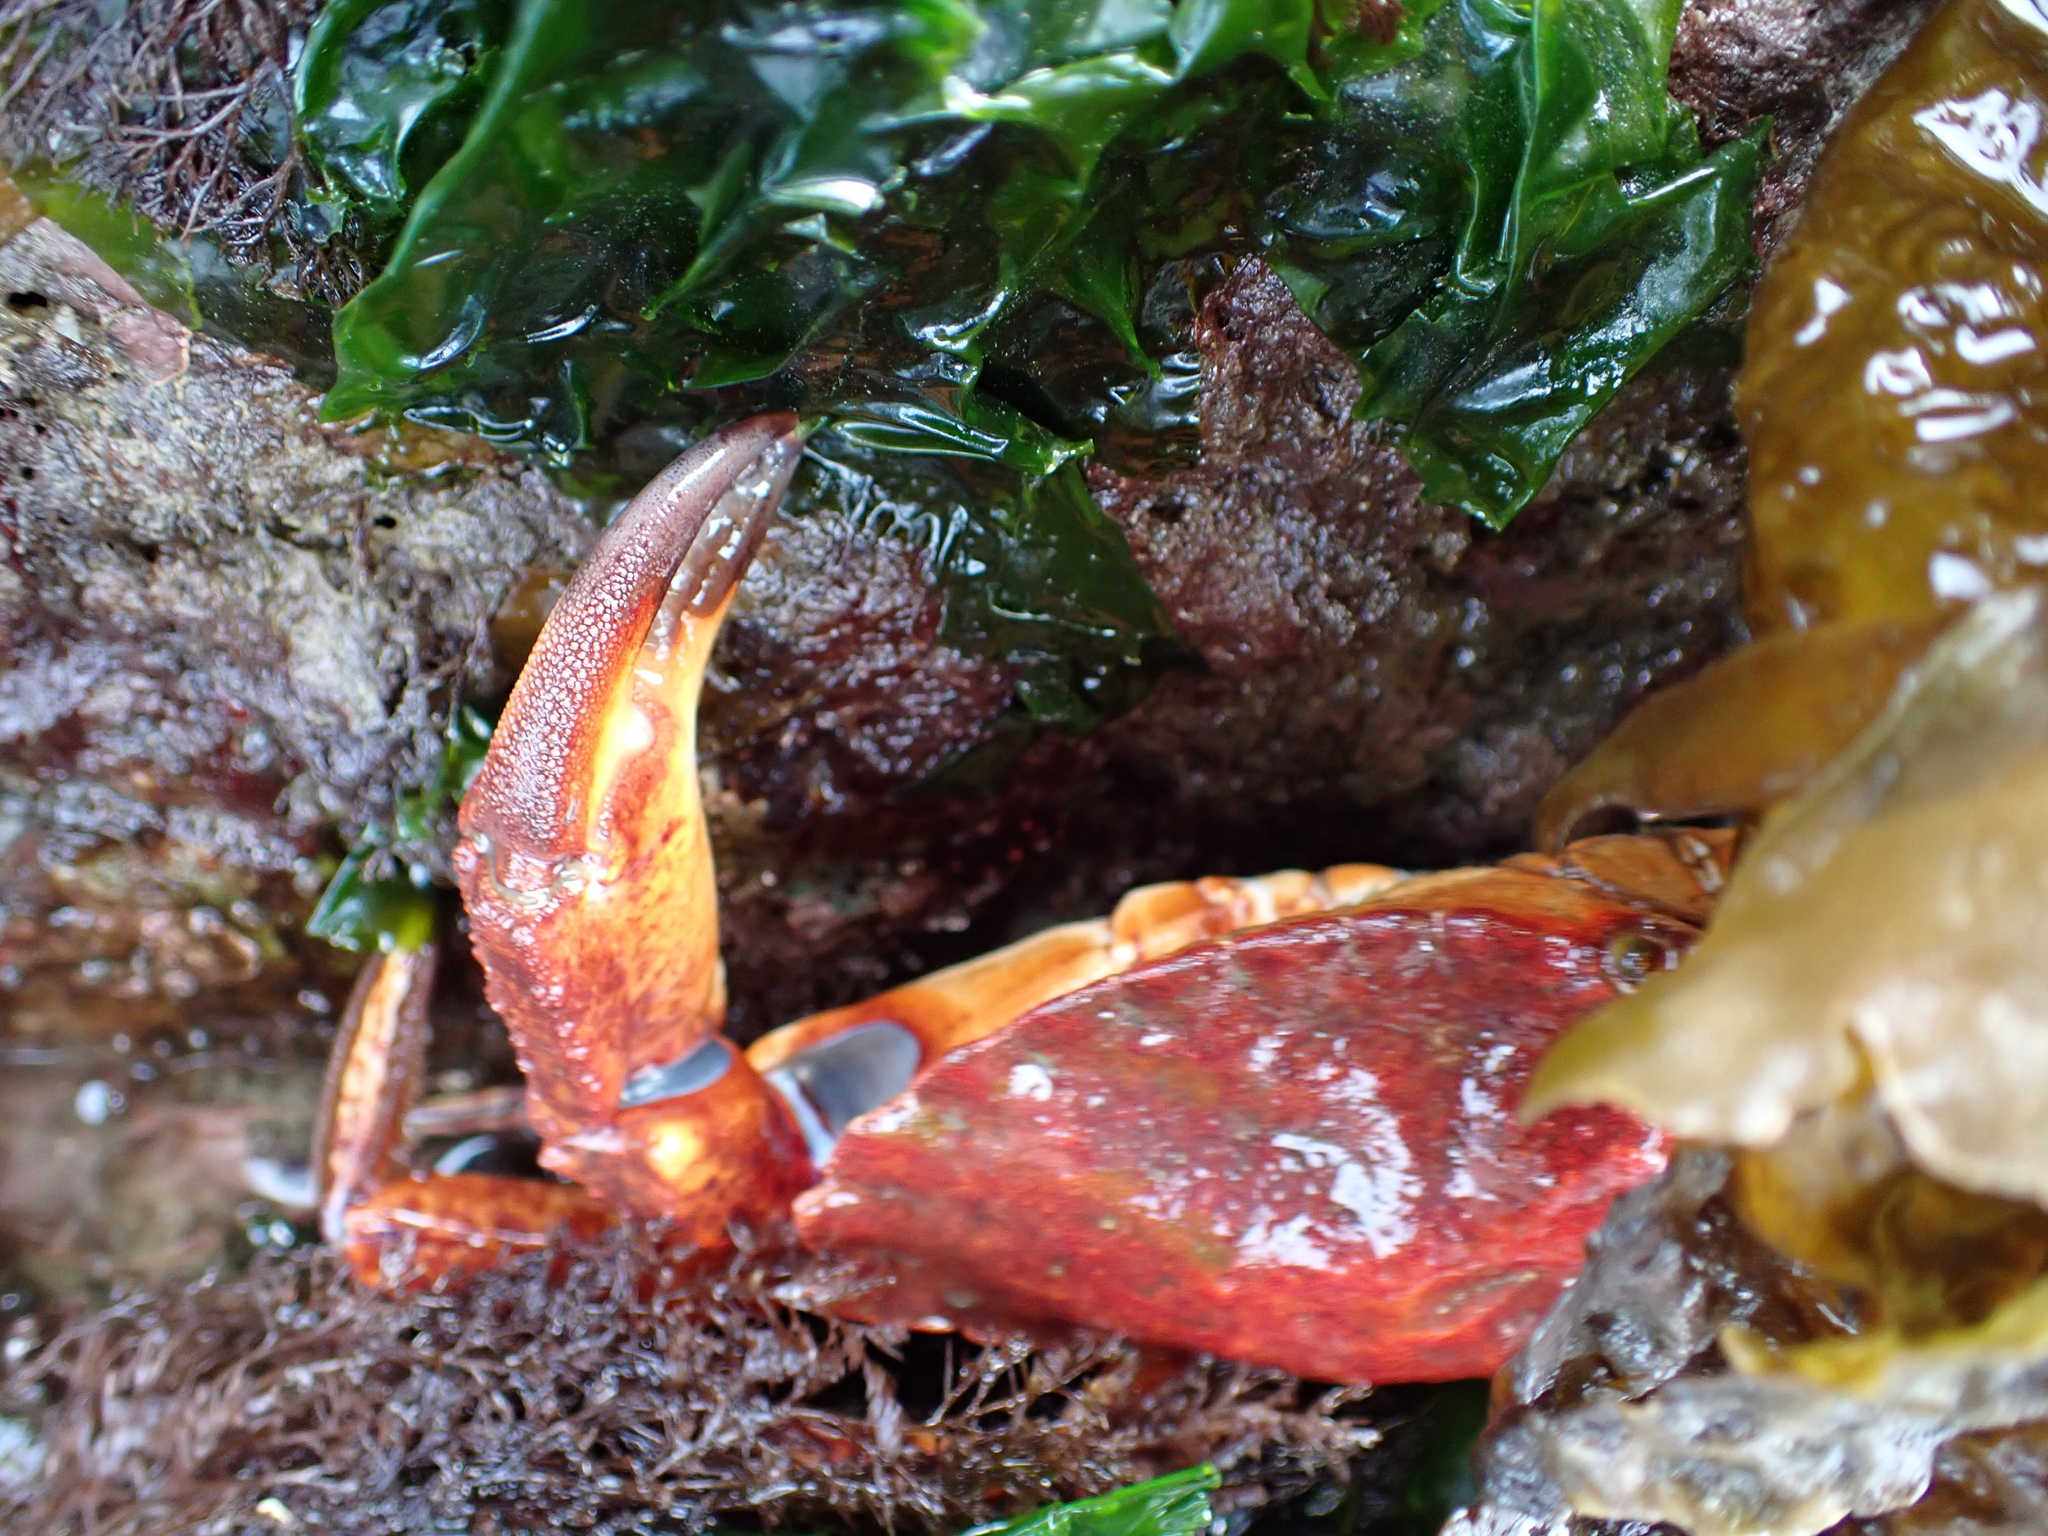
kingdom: Animalia
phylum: Arthropoda
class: Malacostraca
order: Decapoda
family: Cancridae
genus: Cancer
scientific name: Cancer productus
